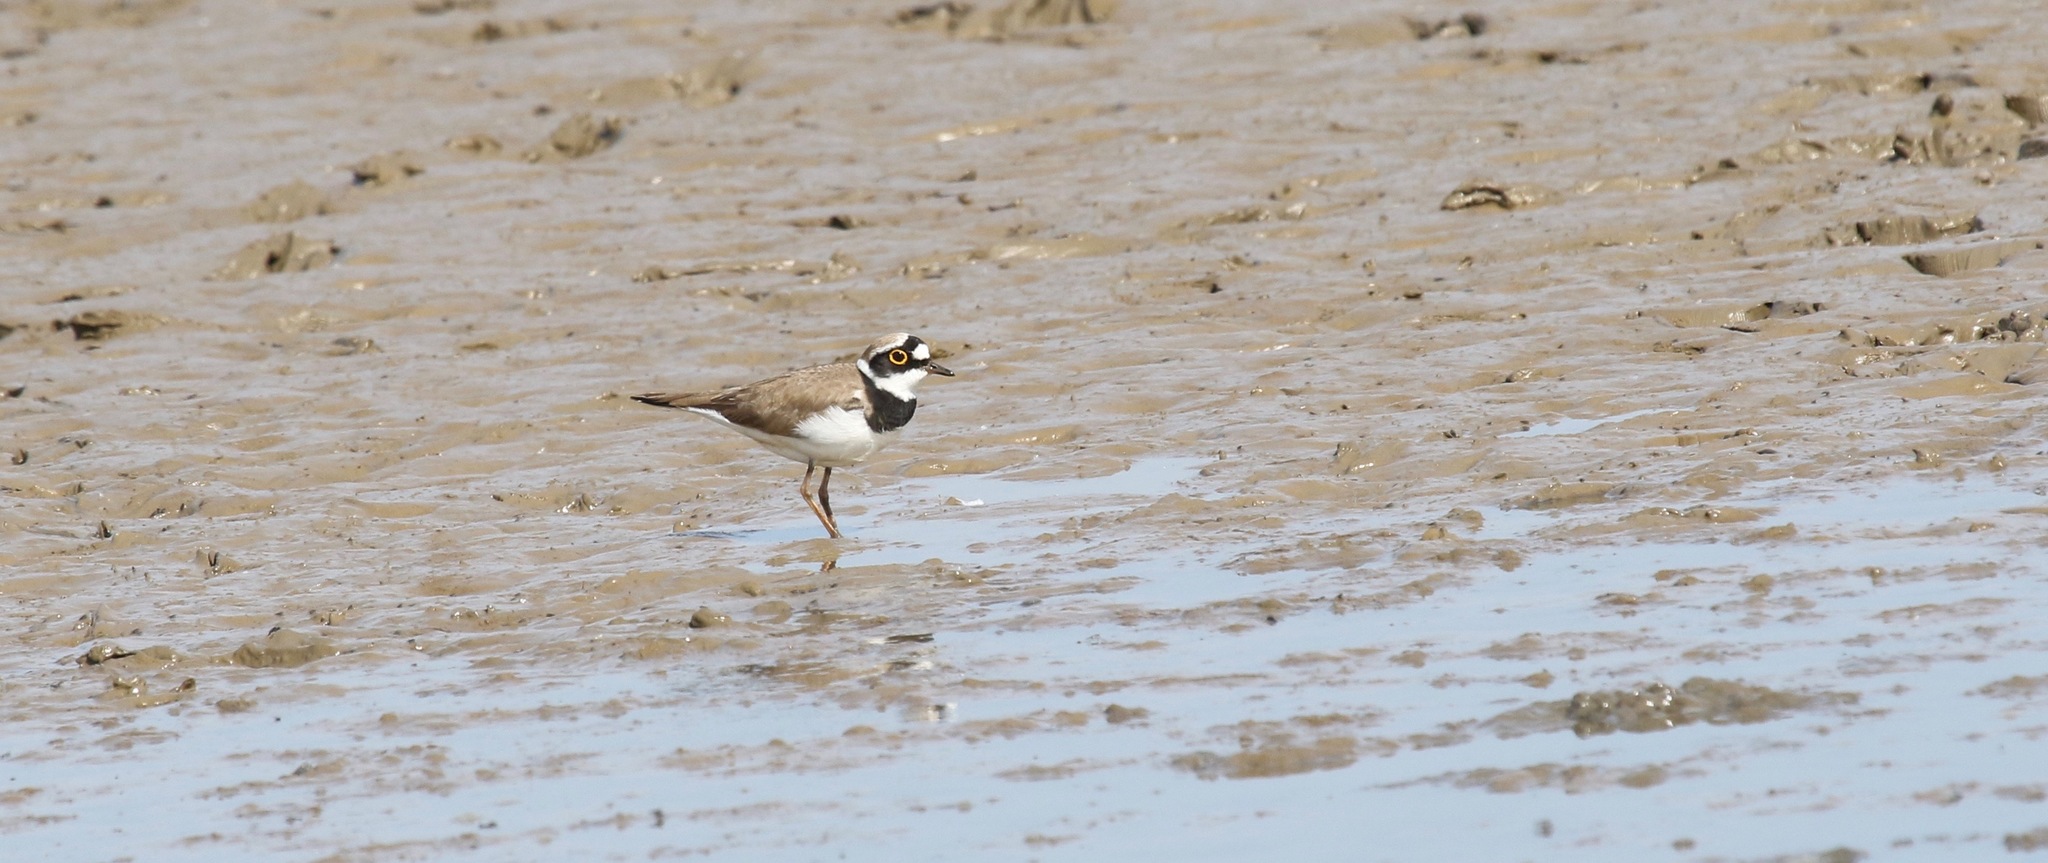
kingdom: Animalia
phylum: Chordata
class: Aves
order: Charadriiformes
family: Charadriidae
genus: Charadrius
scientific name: Charadrius dubius
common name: Little ringed plover
